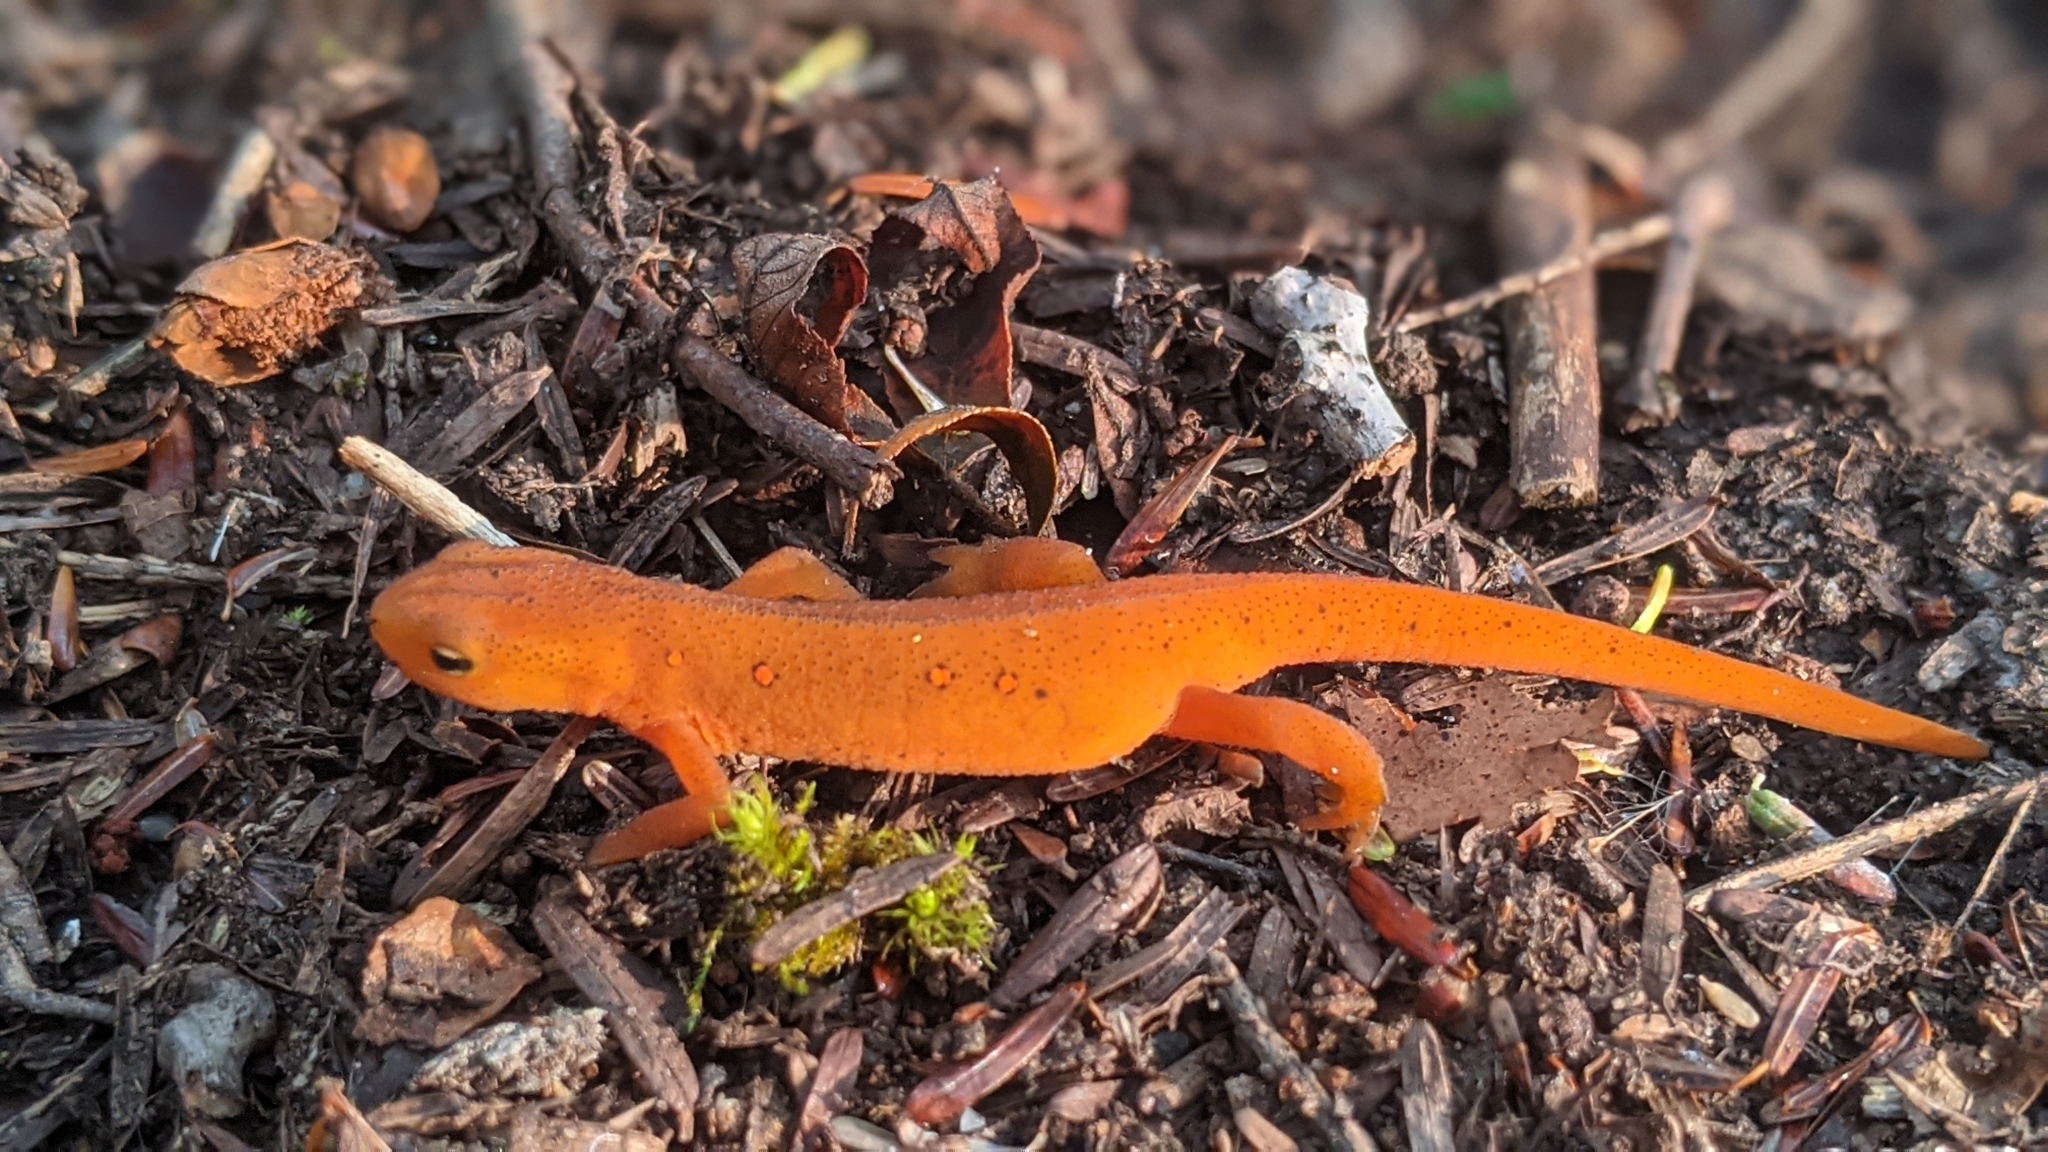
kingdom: Animalia
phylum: Chordata
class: Amphibia
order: Caudata
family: Salamandridae
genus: Notophthalmus
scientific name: Notophthalmus viridescens
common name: Eastern newt
